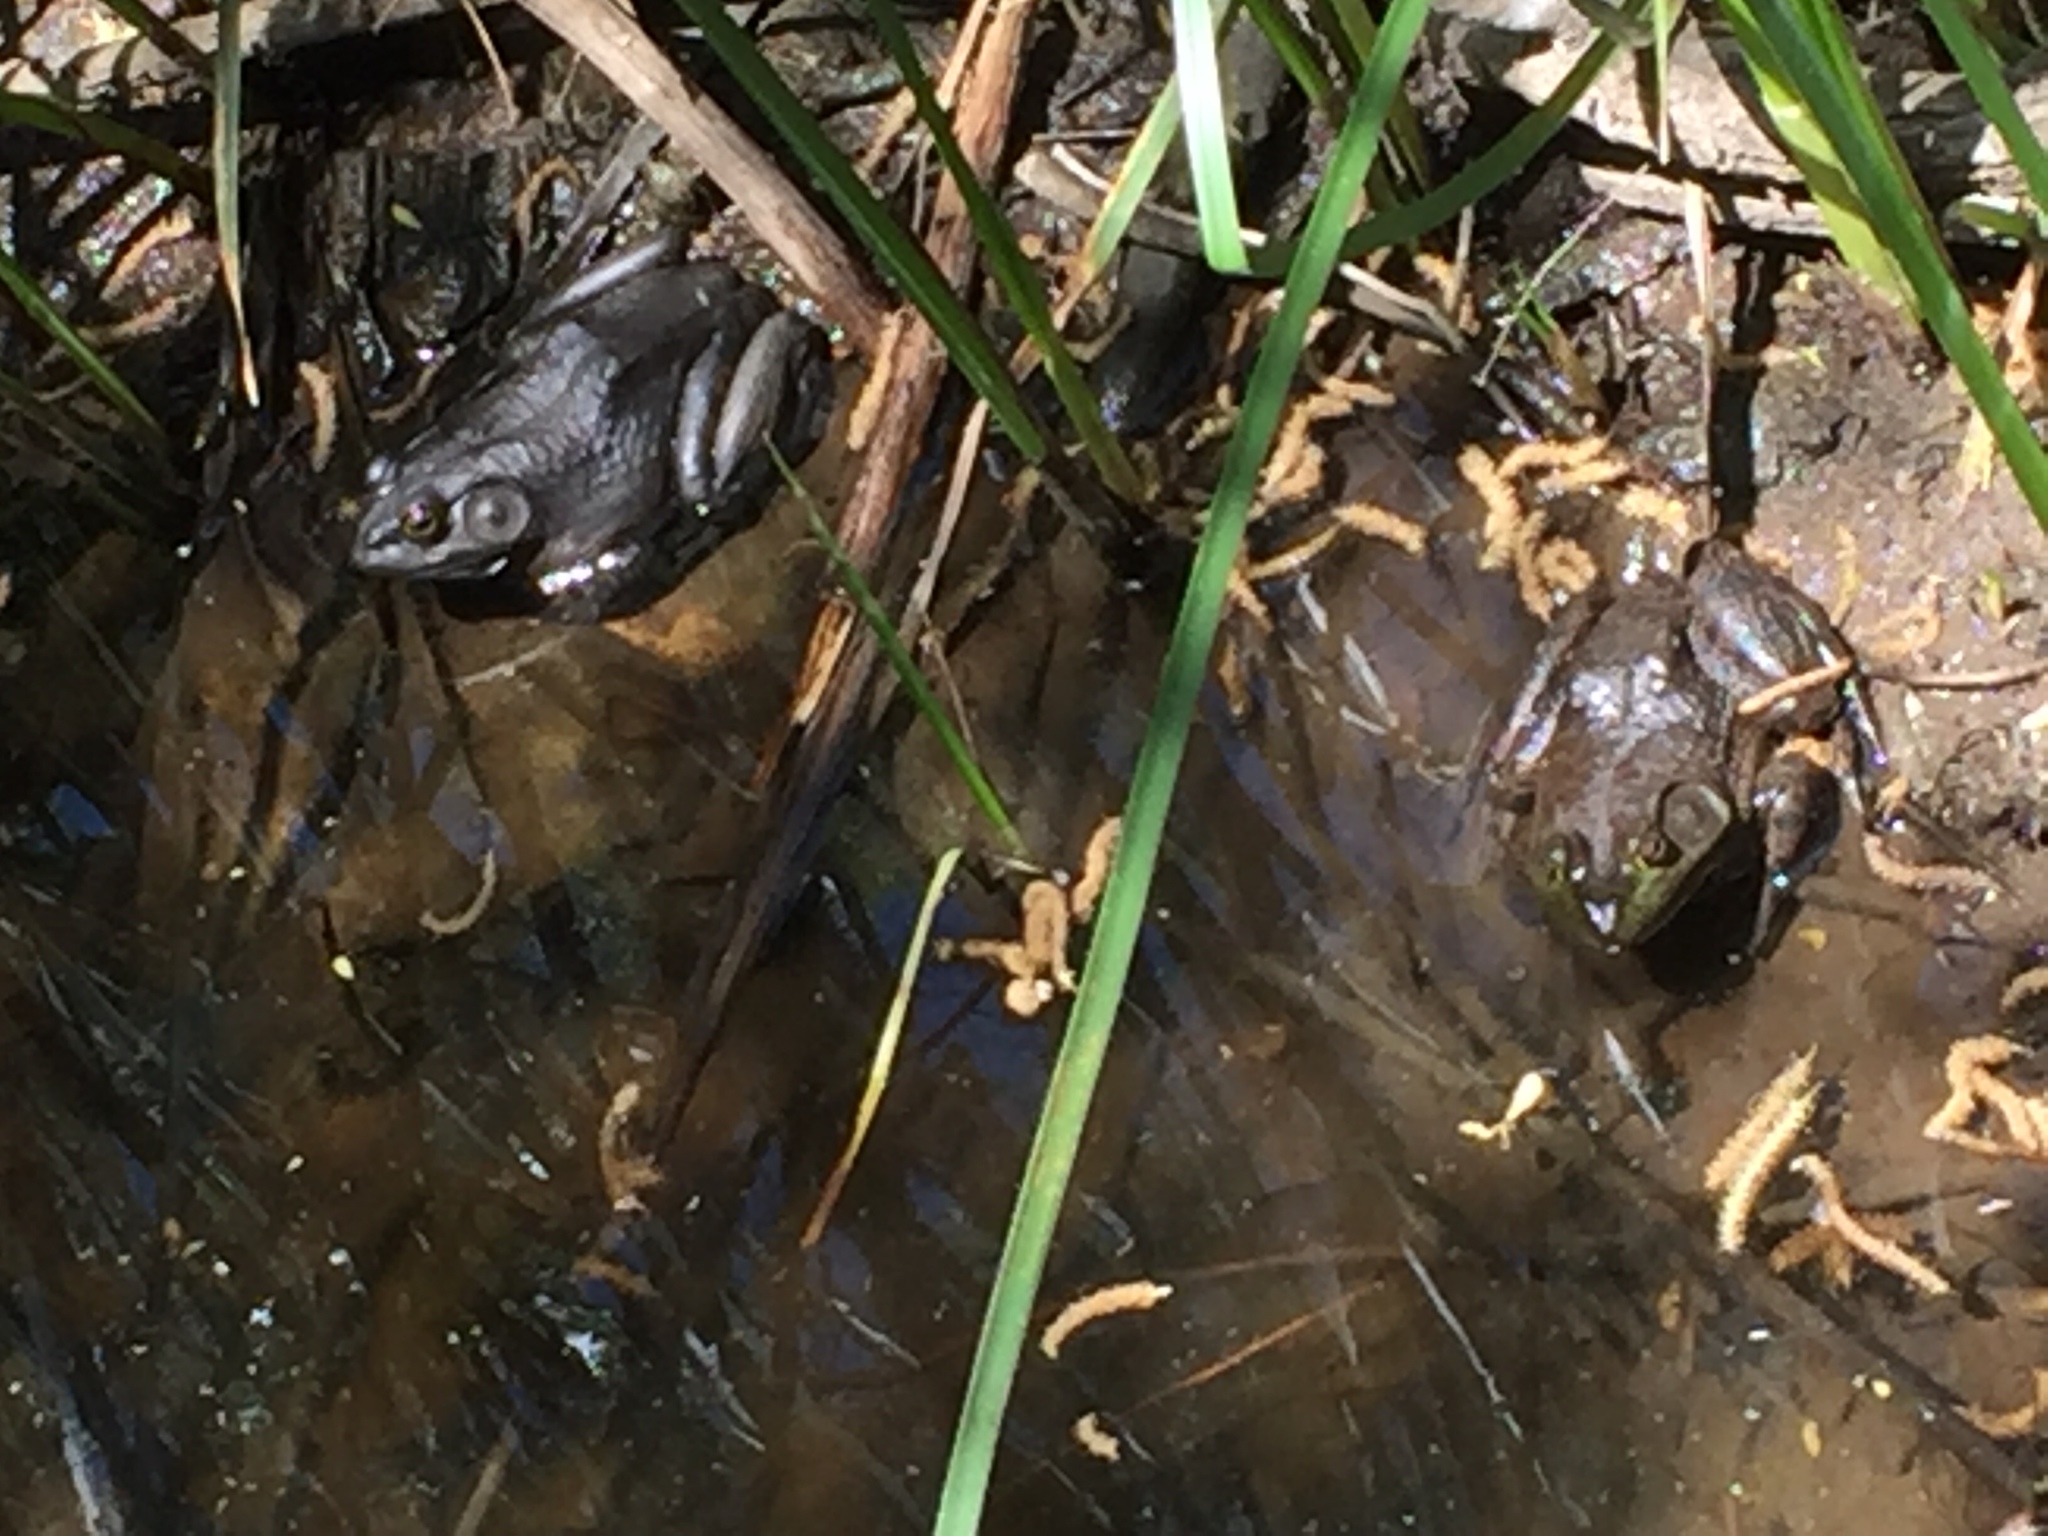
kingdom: Animalia
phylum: Chordata
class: Amphibia
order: Anura
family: Ranidae
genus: Lithobates
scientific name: Lithobates catesbeianus
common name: American bullfrog
